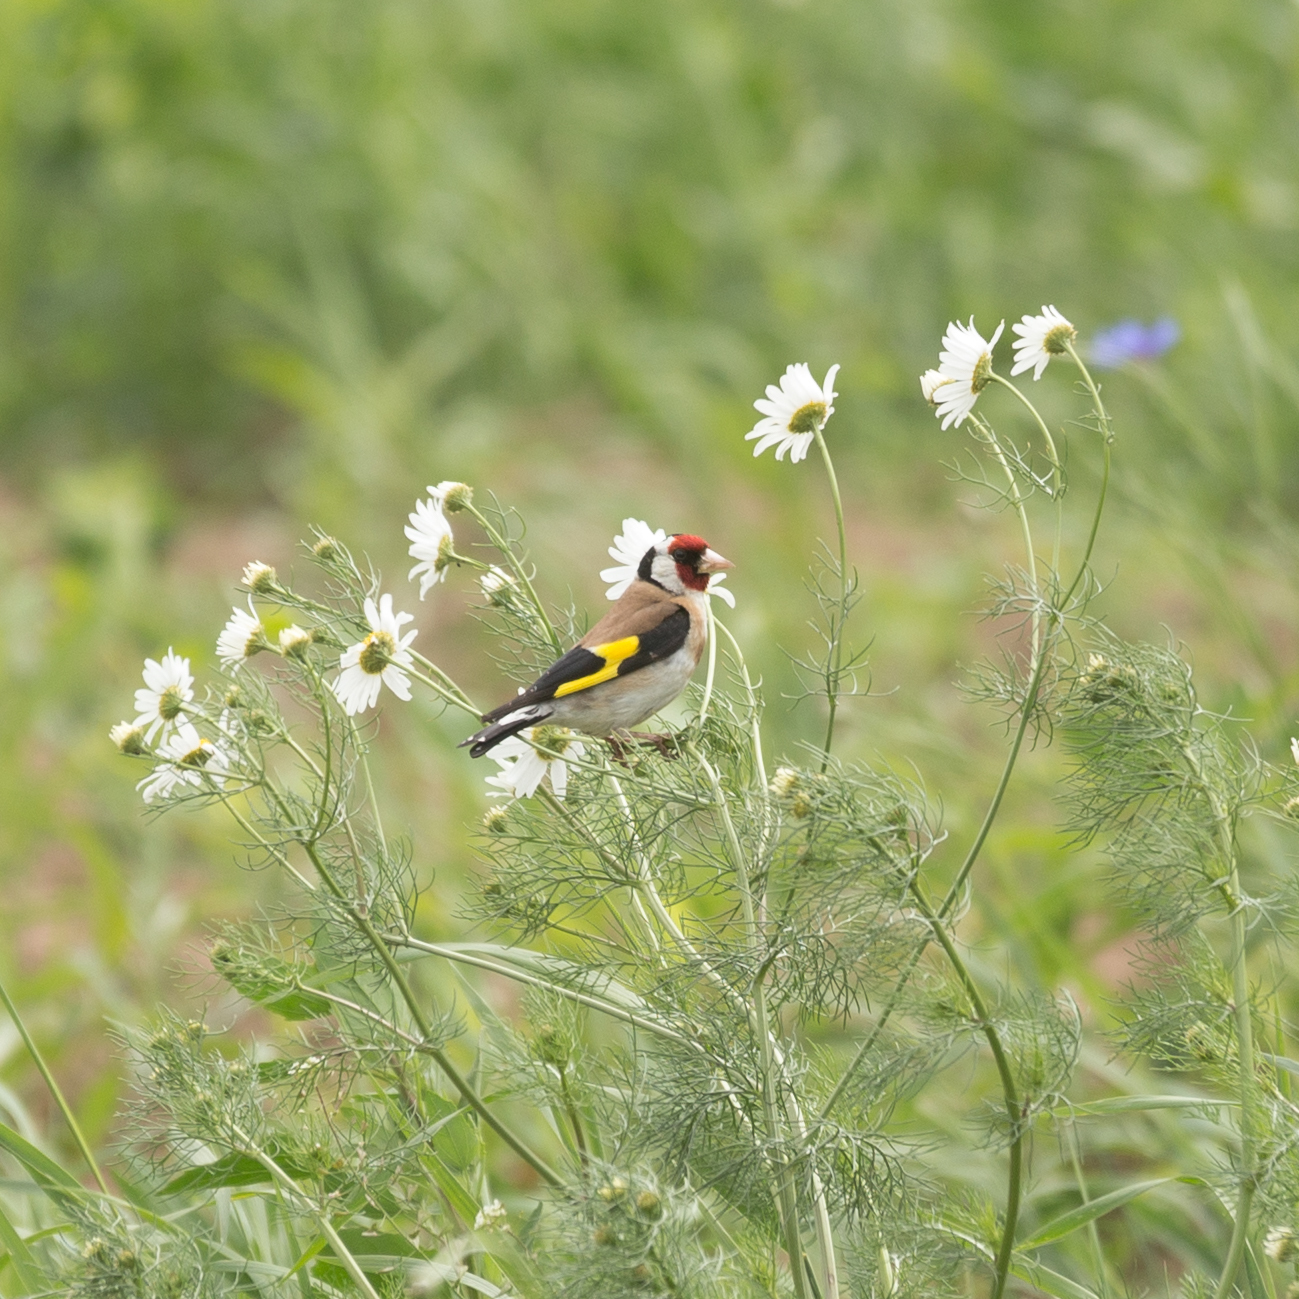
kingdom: Animalia
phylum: Chordata
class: Aves
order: Passeriformes
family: Fringillidae
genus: Carduelis
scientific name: Carduelis carduelis
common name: European goldfinch
